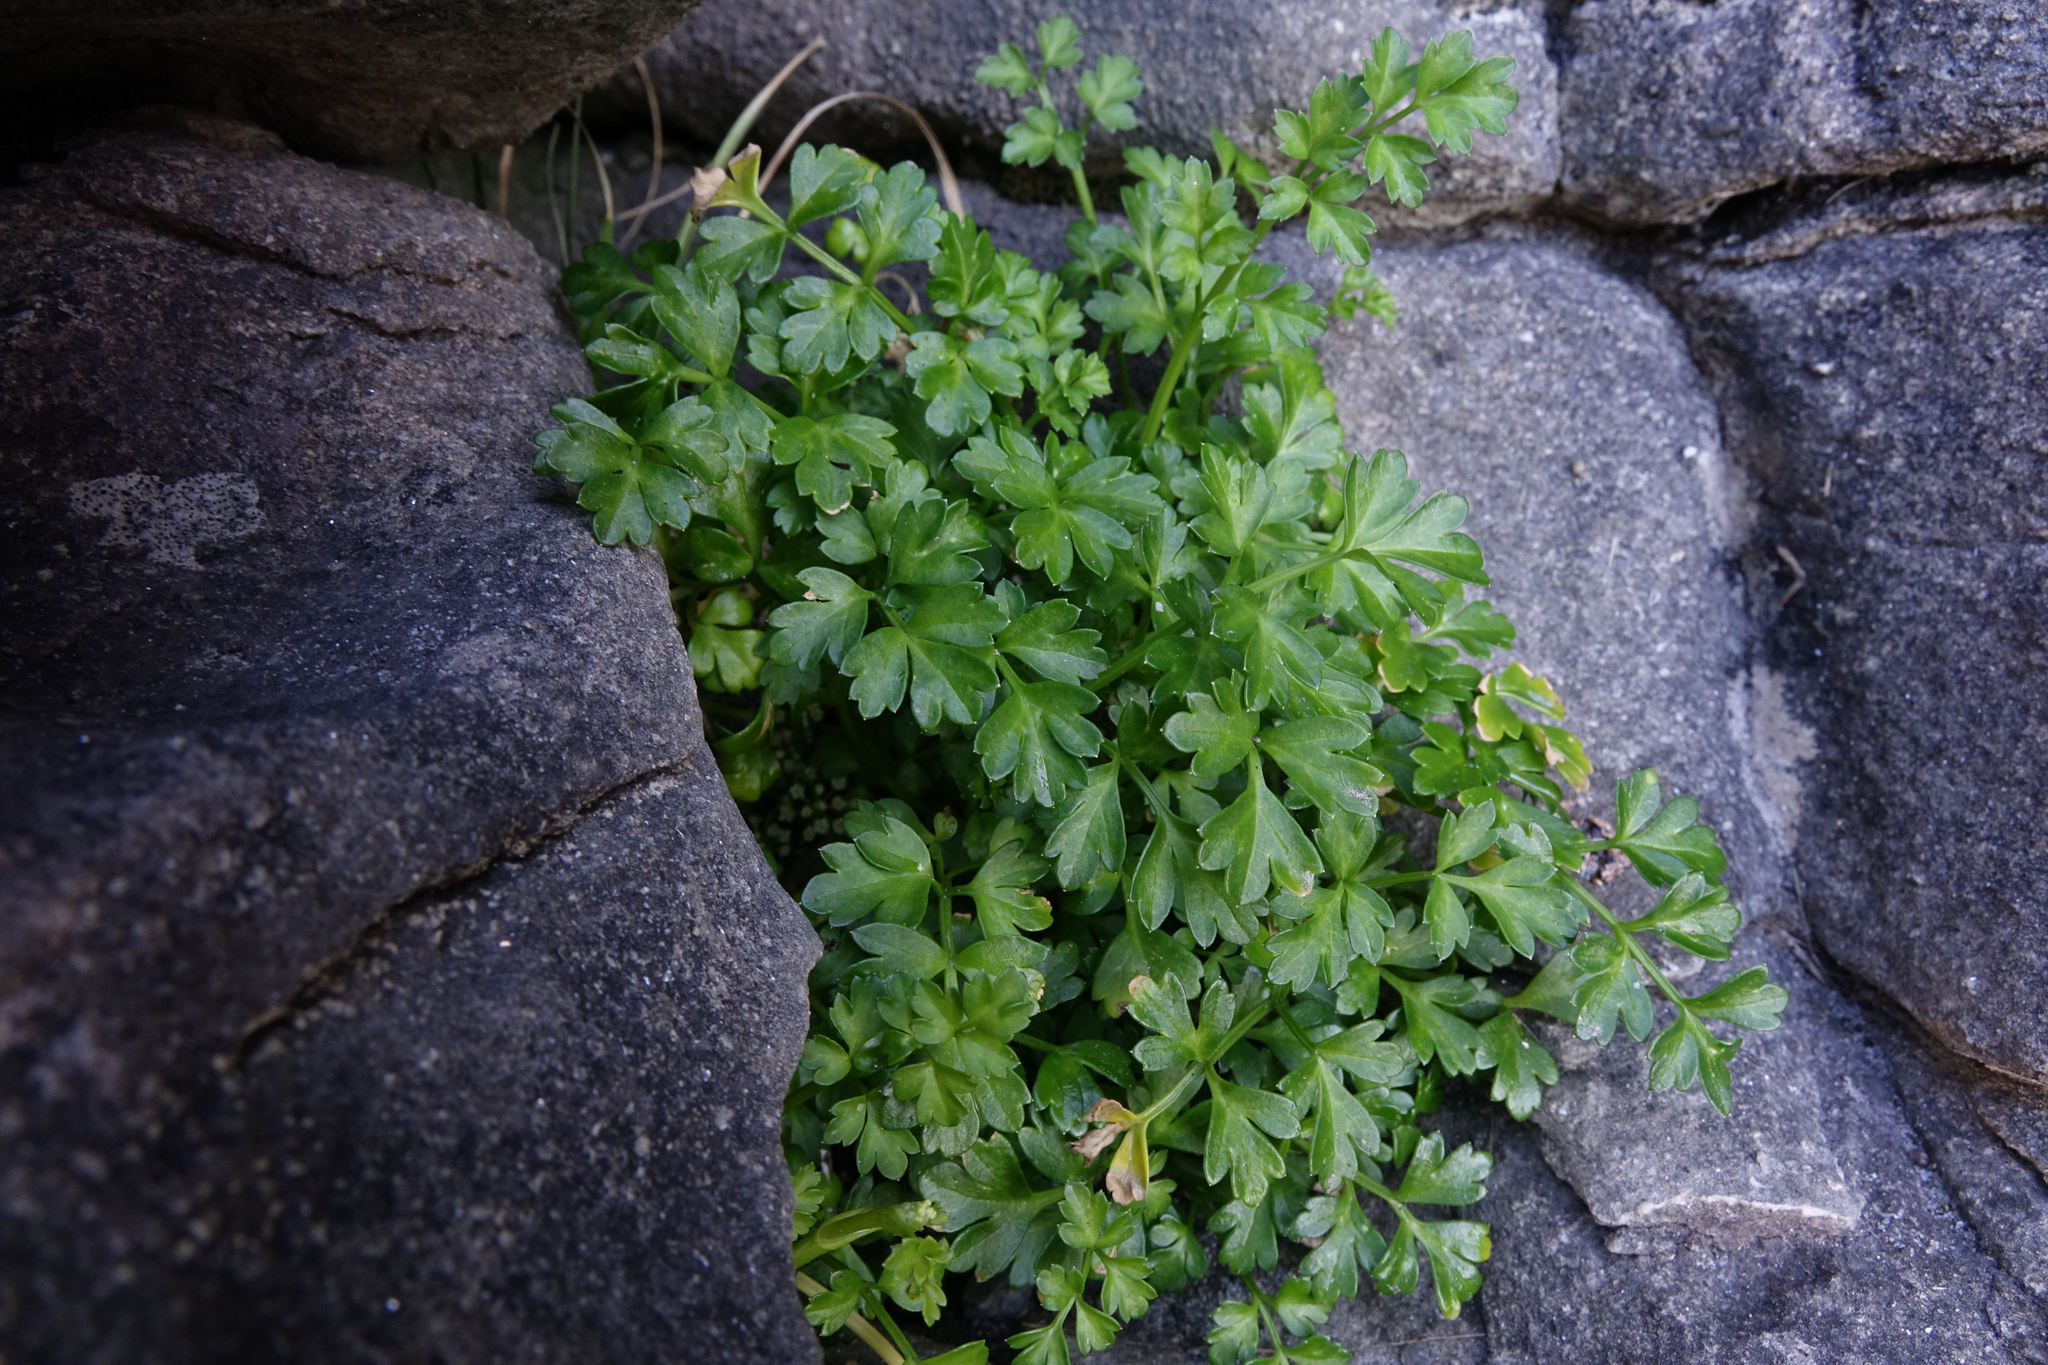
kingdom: Plantae
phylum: Tracheophyta
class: Magnoliopsida
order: Apiales
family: Apiaceae
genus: Apium
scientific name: Apium prostratum
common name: Prostrate marshwort
